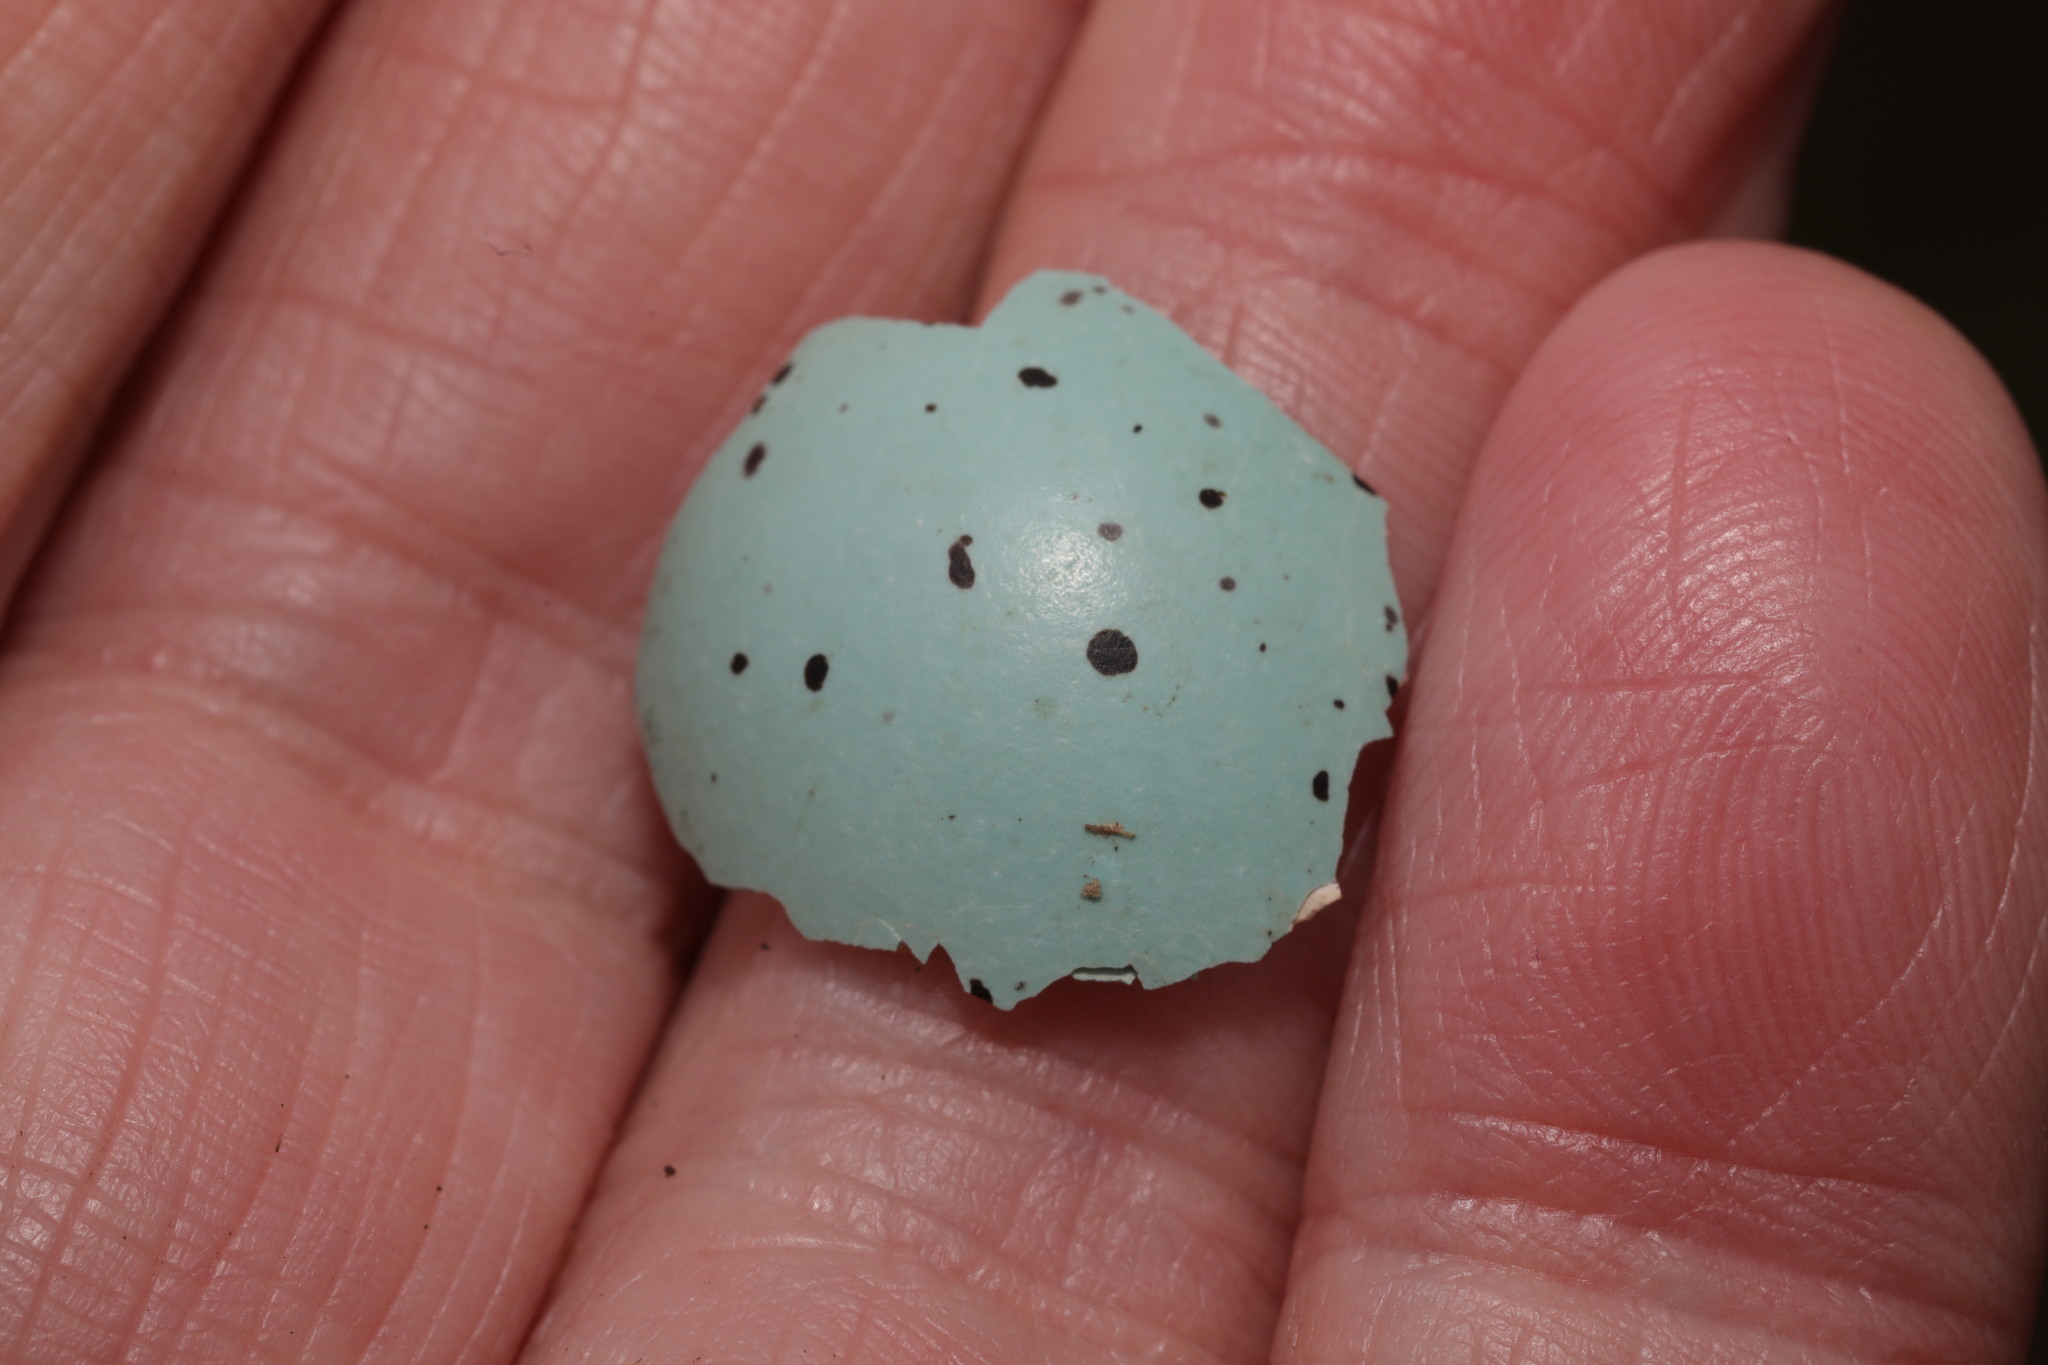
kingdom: Animalia
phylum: Chordata
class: Aves
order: Passeriformes
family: Turdidae
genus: Turdus
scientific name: Turdus philomelos
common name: Song thrush
